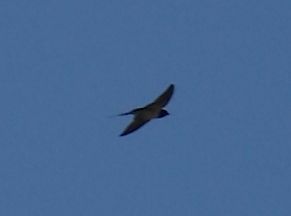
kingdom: Animalia
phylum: Chordata
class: Aves
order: Passeriformes
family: Hirundinidae
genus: Hirundo
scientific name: Hirundo rustica
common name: Barn swallow
